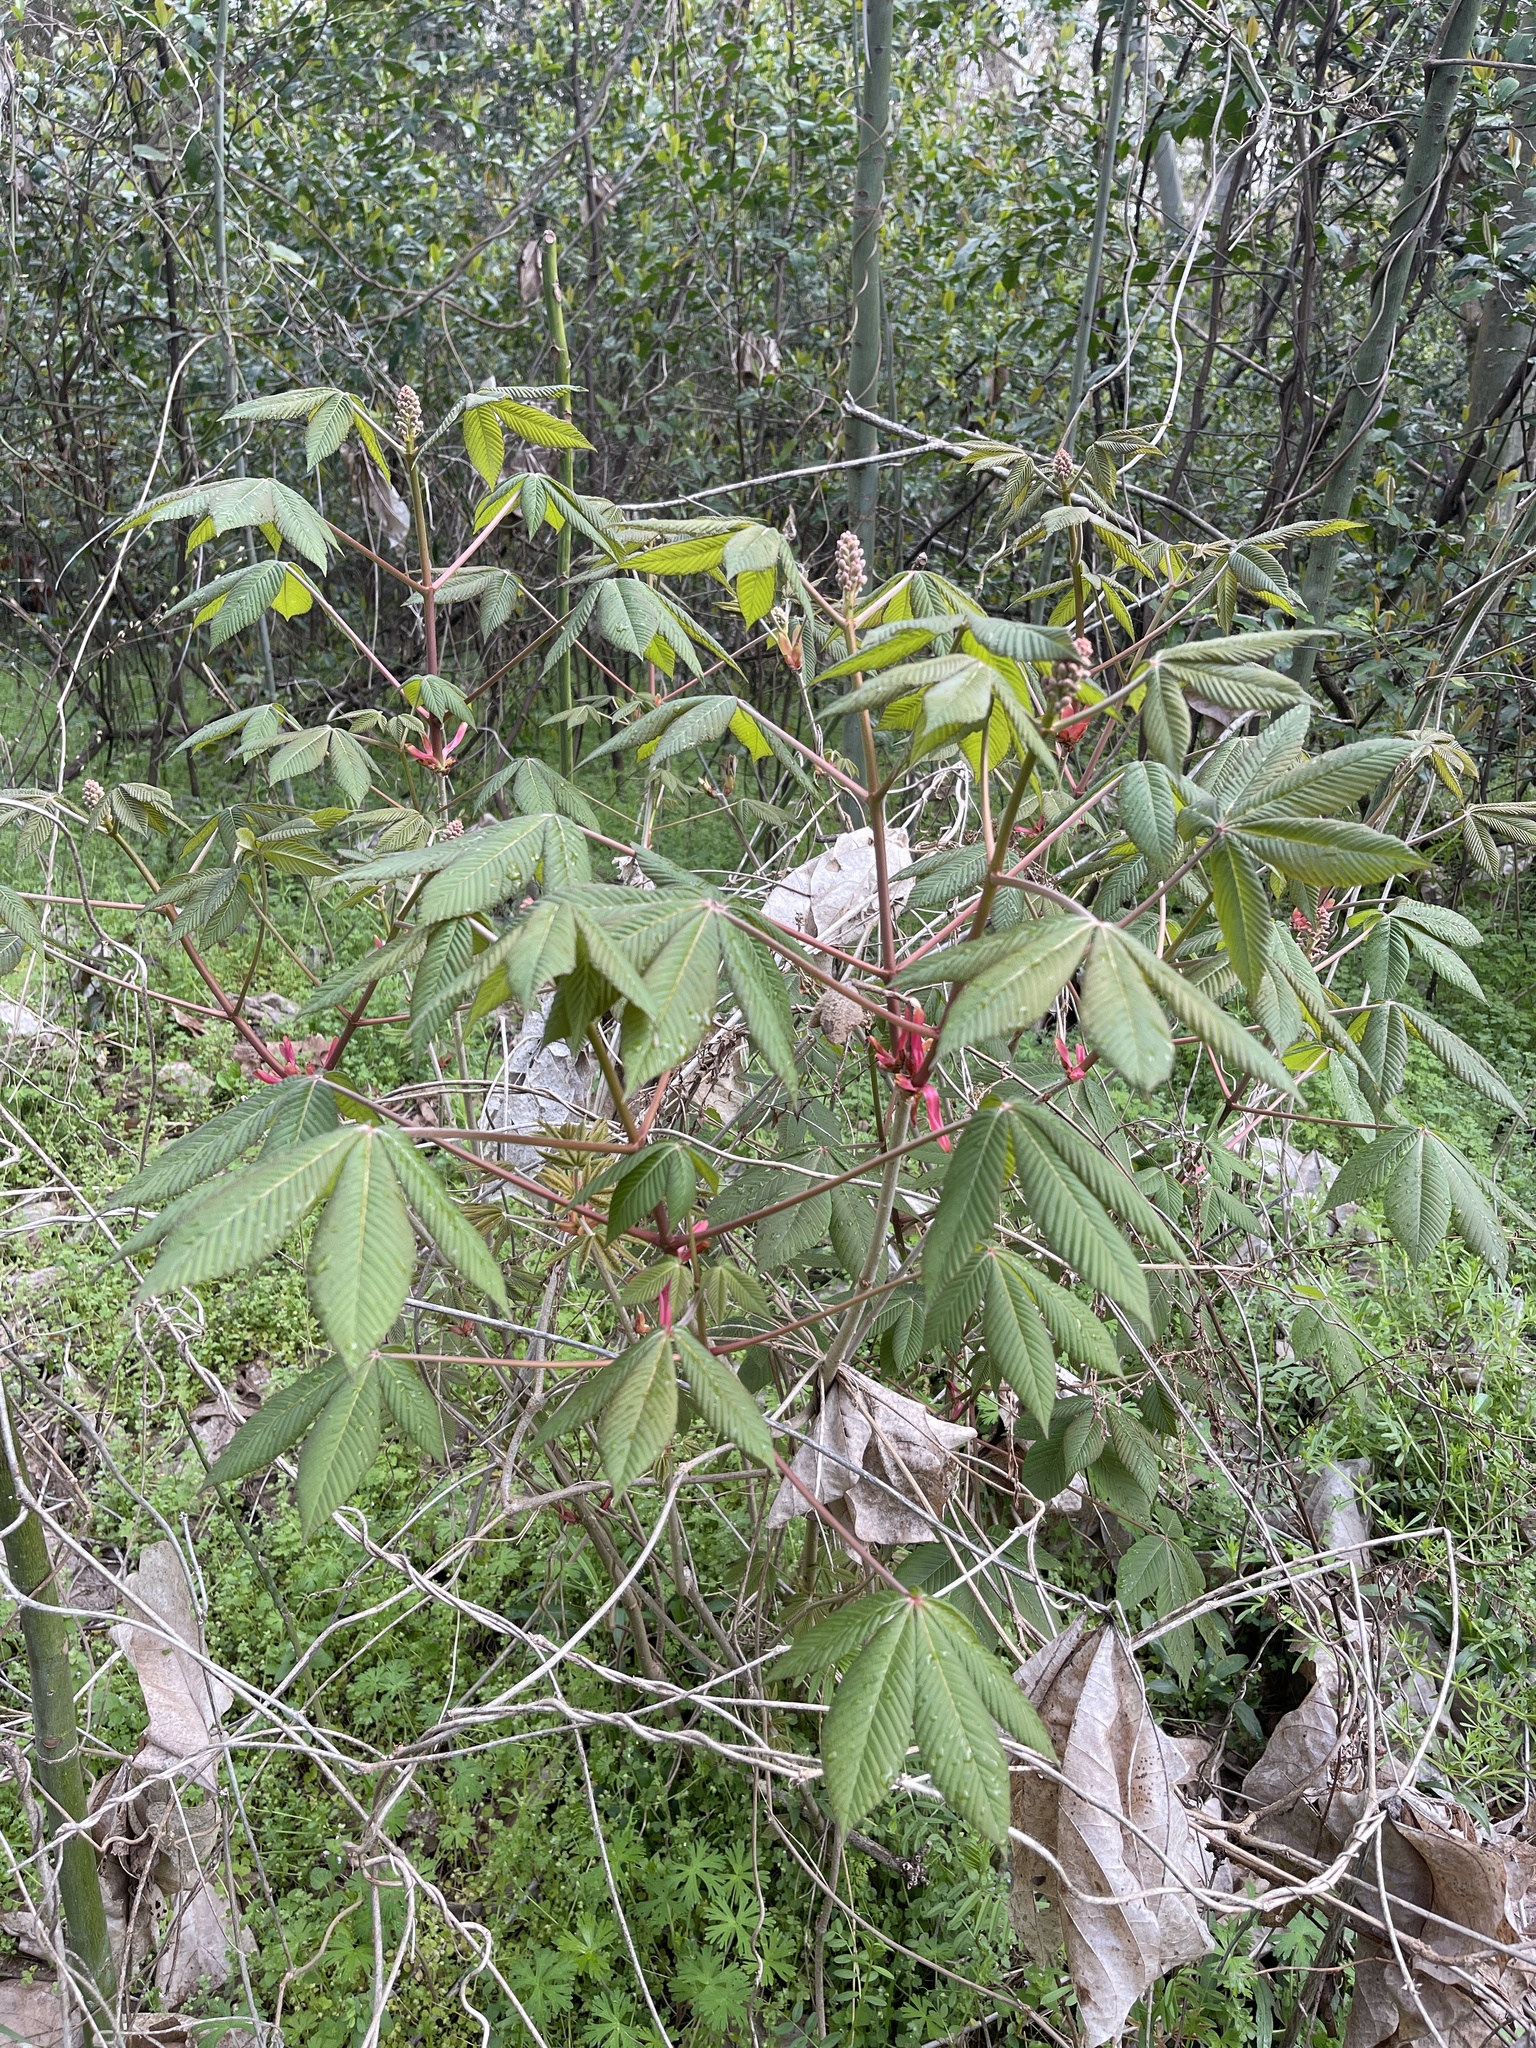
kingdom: Plantae
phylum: Tracheophyta
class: Magnoliopsida
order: Sapindales
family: Sapindaceae
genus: Aesculus
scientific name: Aesculus pavia
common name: Red buckeye
